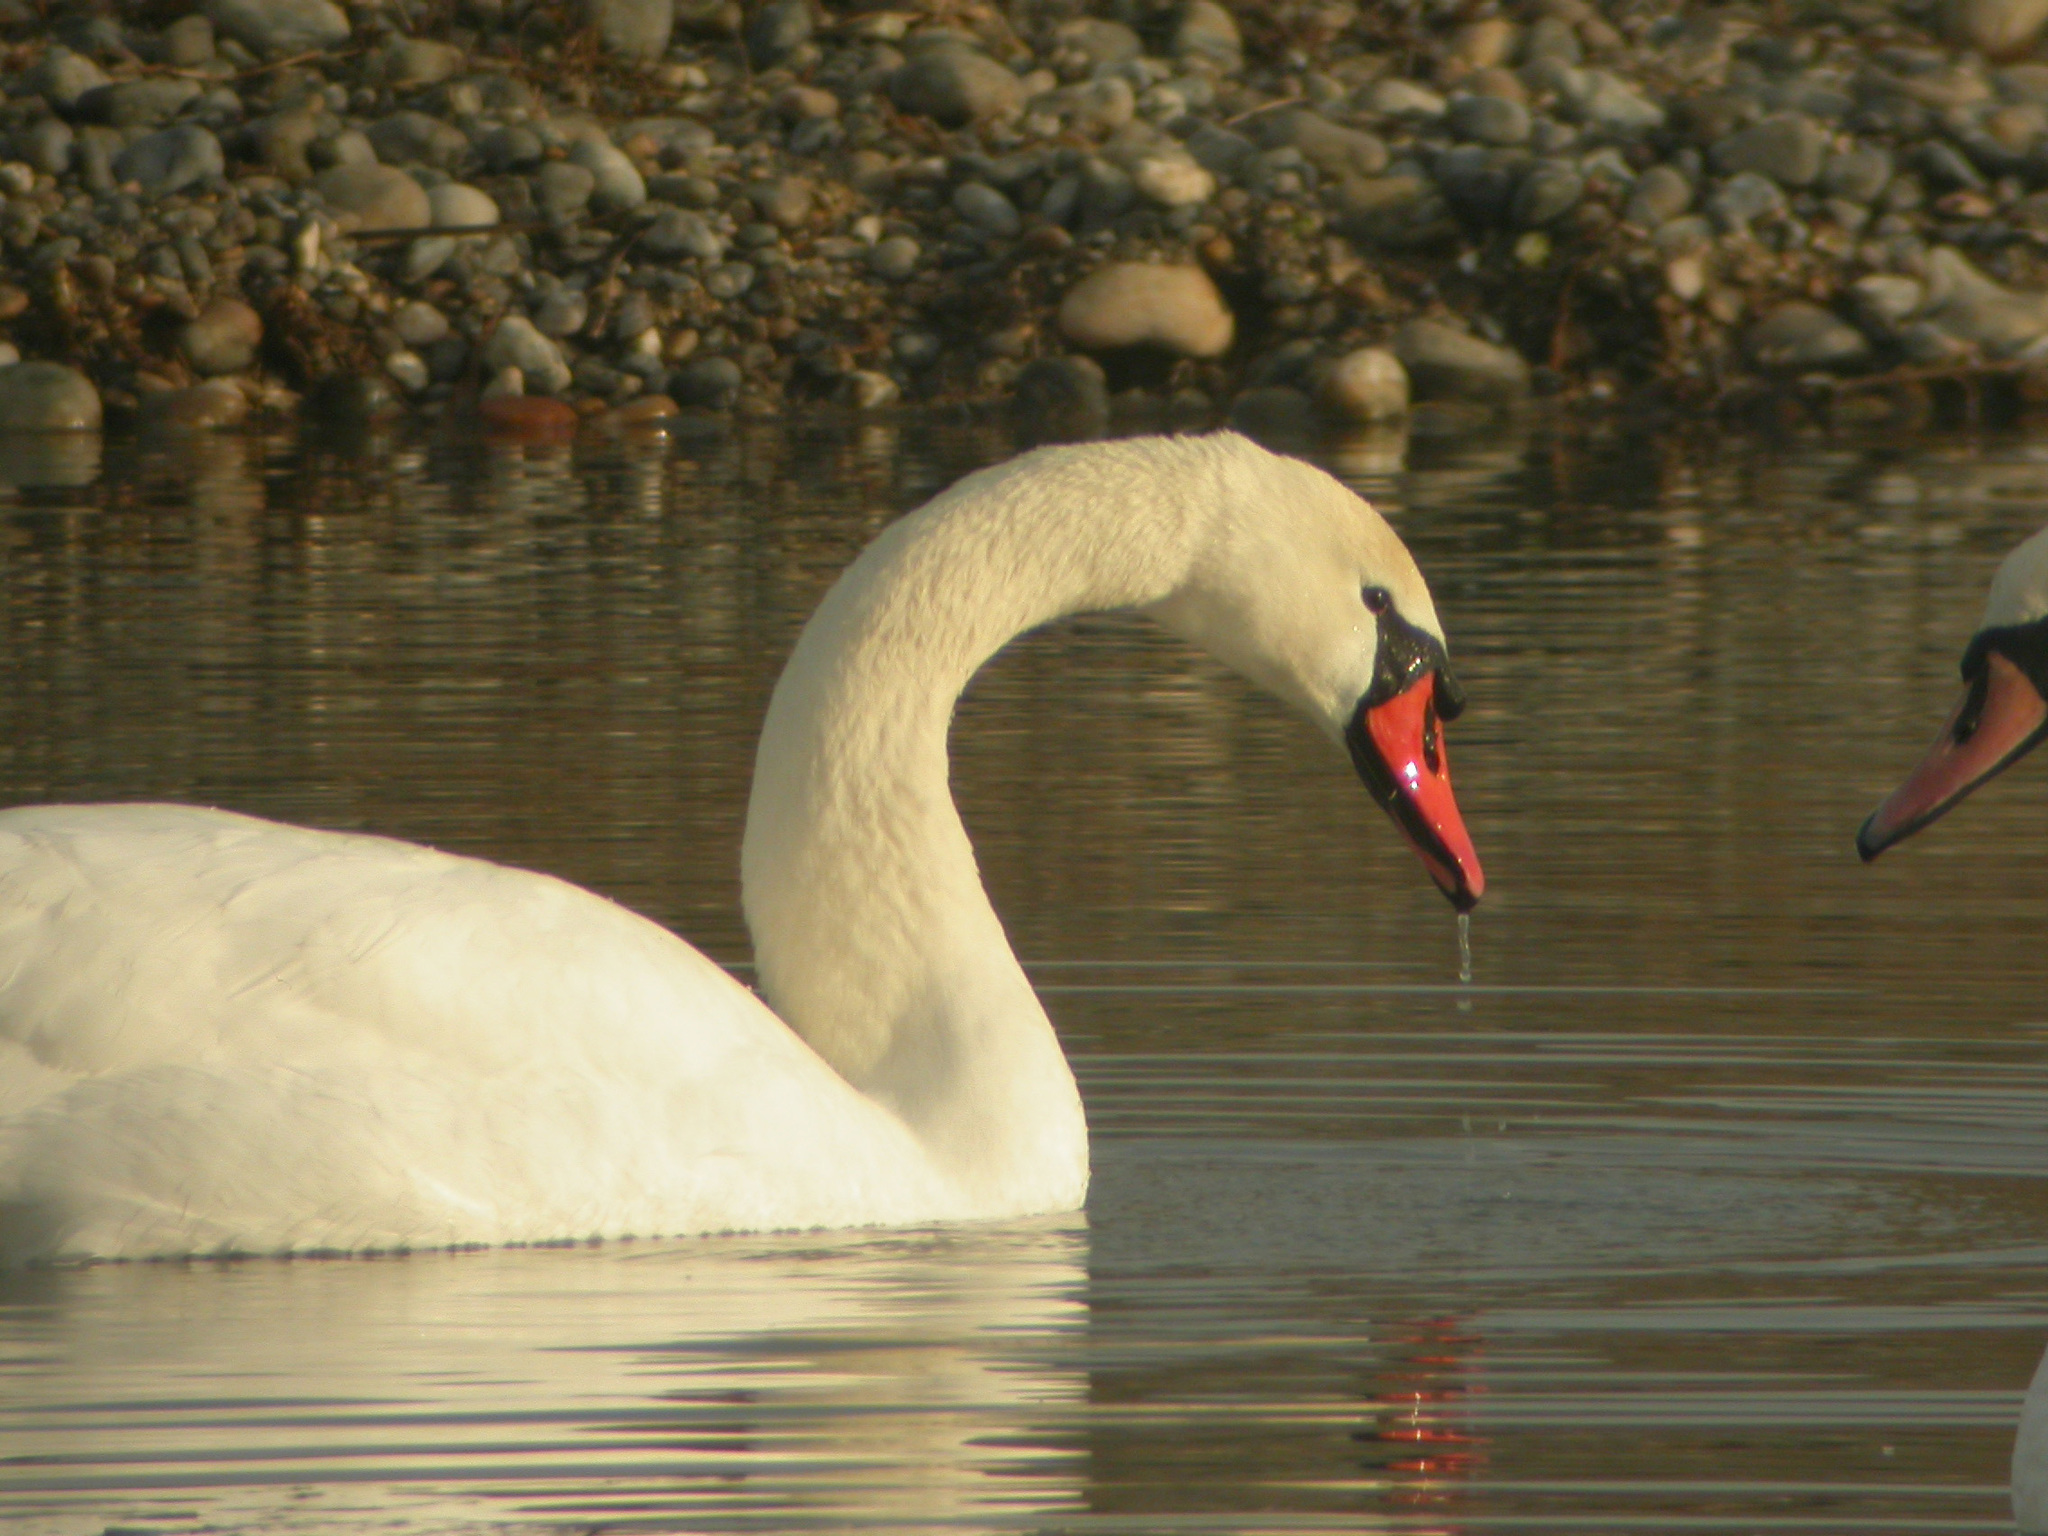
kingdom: Animalia
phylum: Chordata
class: Aves
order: Anseriformes
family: Anatidae
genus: Cygnus
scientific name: Cygnus olor
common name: Mute swan
